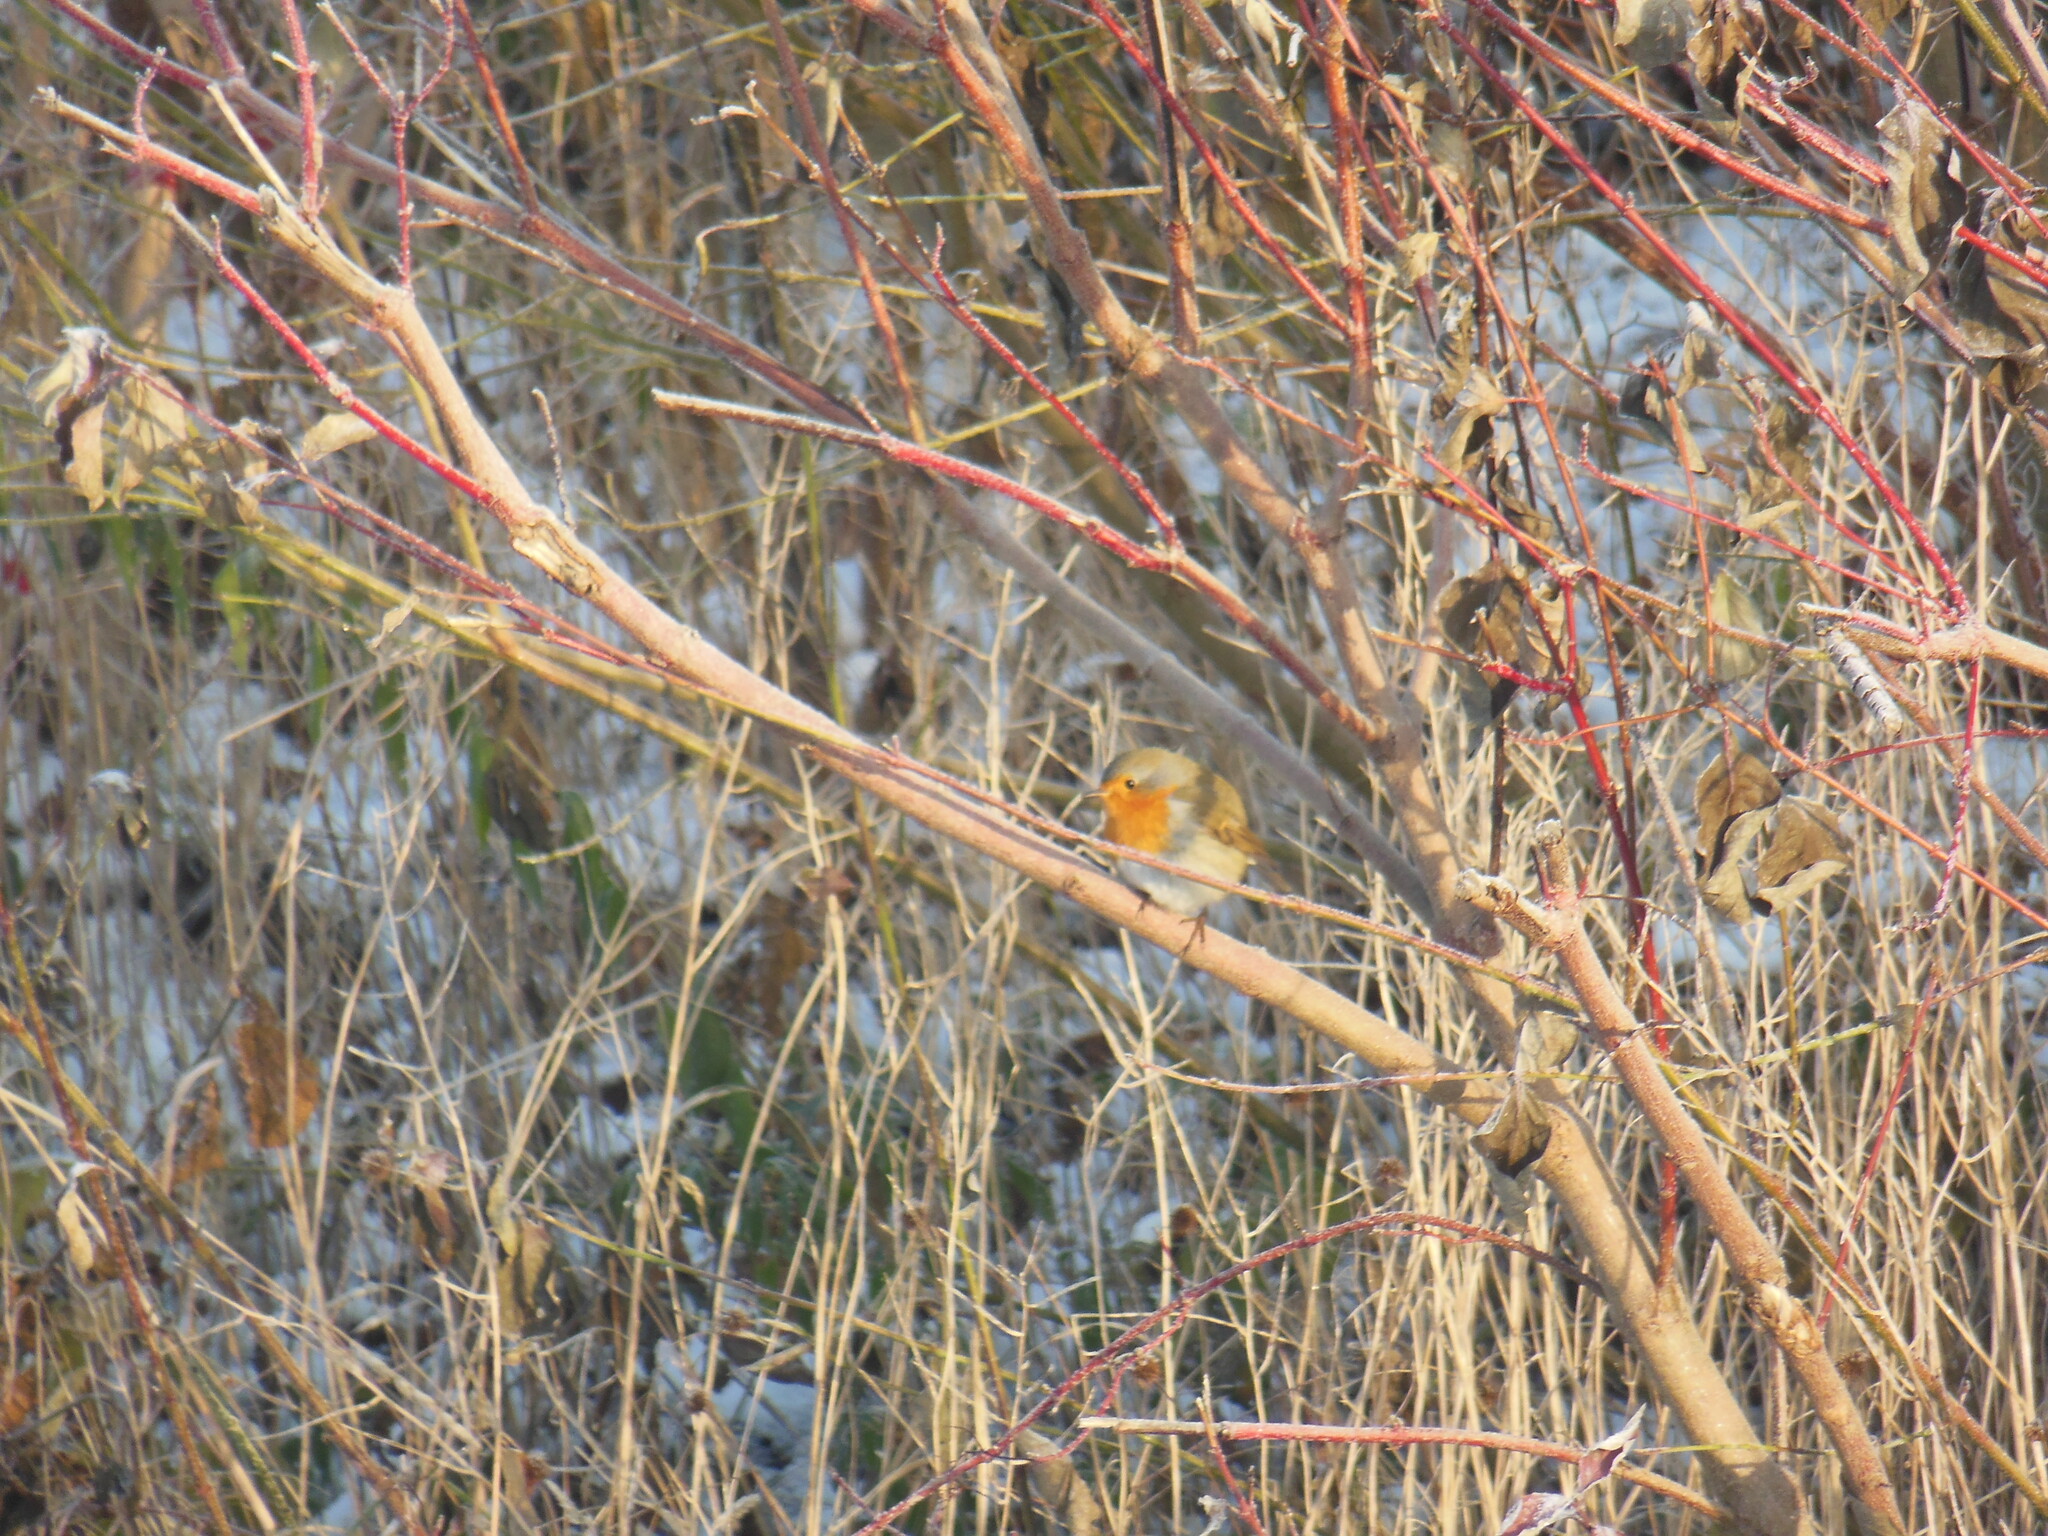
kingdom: Animalia
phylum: Chordata
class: Aves
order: Passeriformes
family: Muscicapidae
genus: Erithacus
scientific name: Erithacus rubecula
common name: European robin
